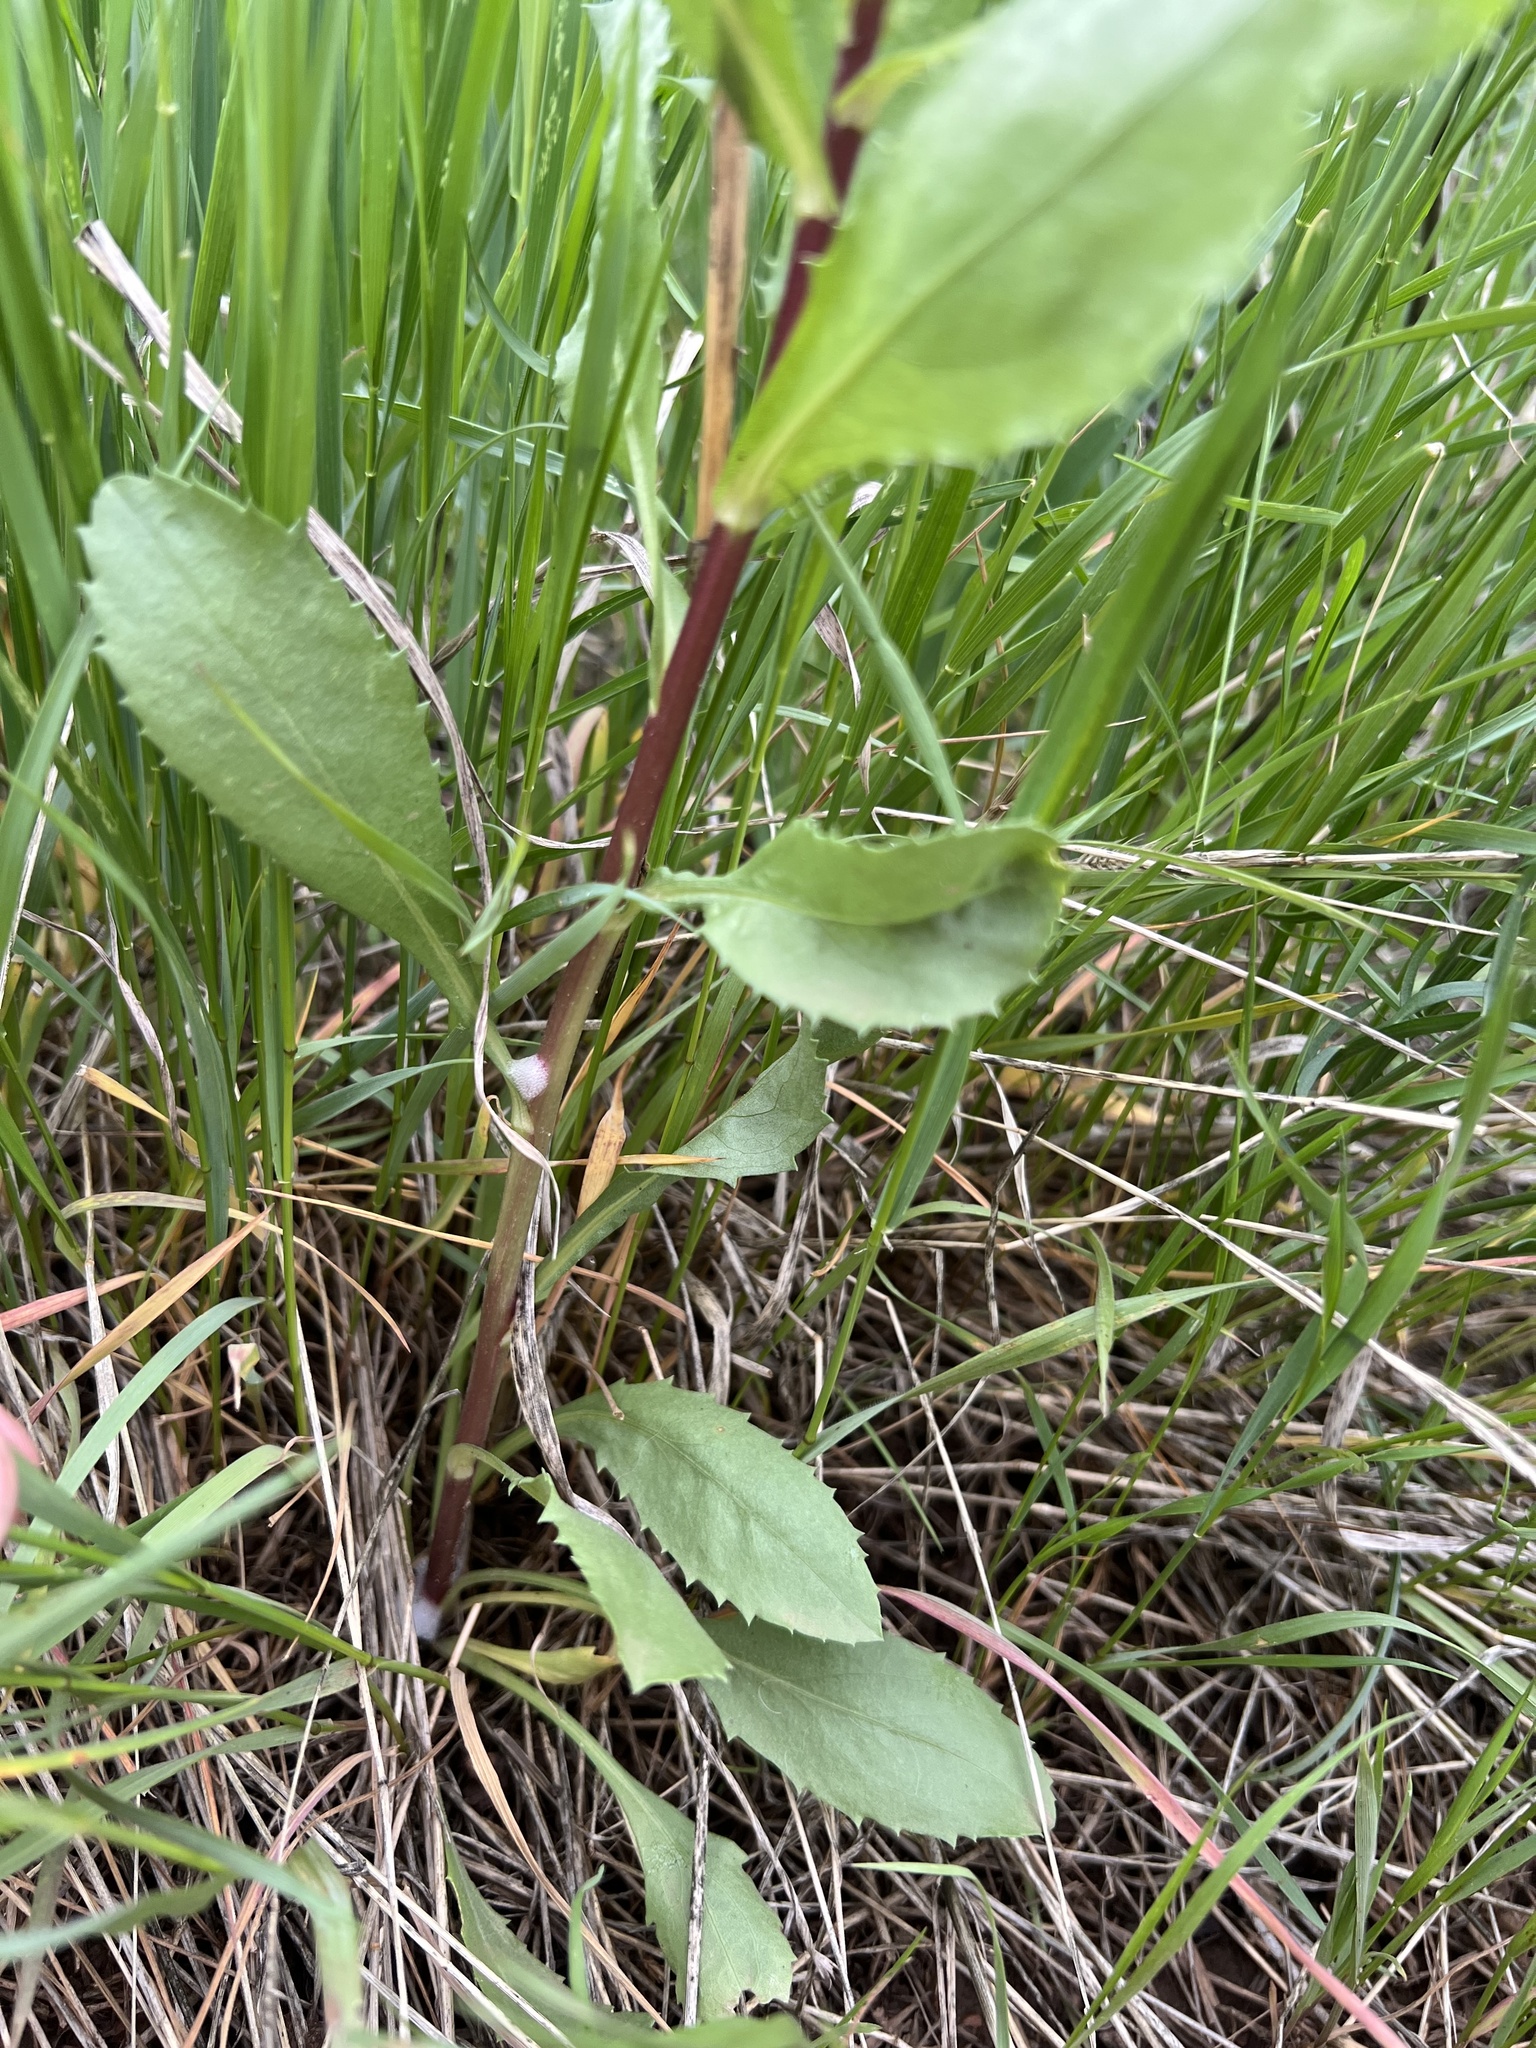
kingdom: Plantae
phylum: Tracheophyta
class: Magnoliopsida
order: Asterales
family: Asteraceae
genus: Grindelia
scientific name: Grindelia subalpina
